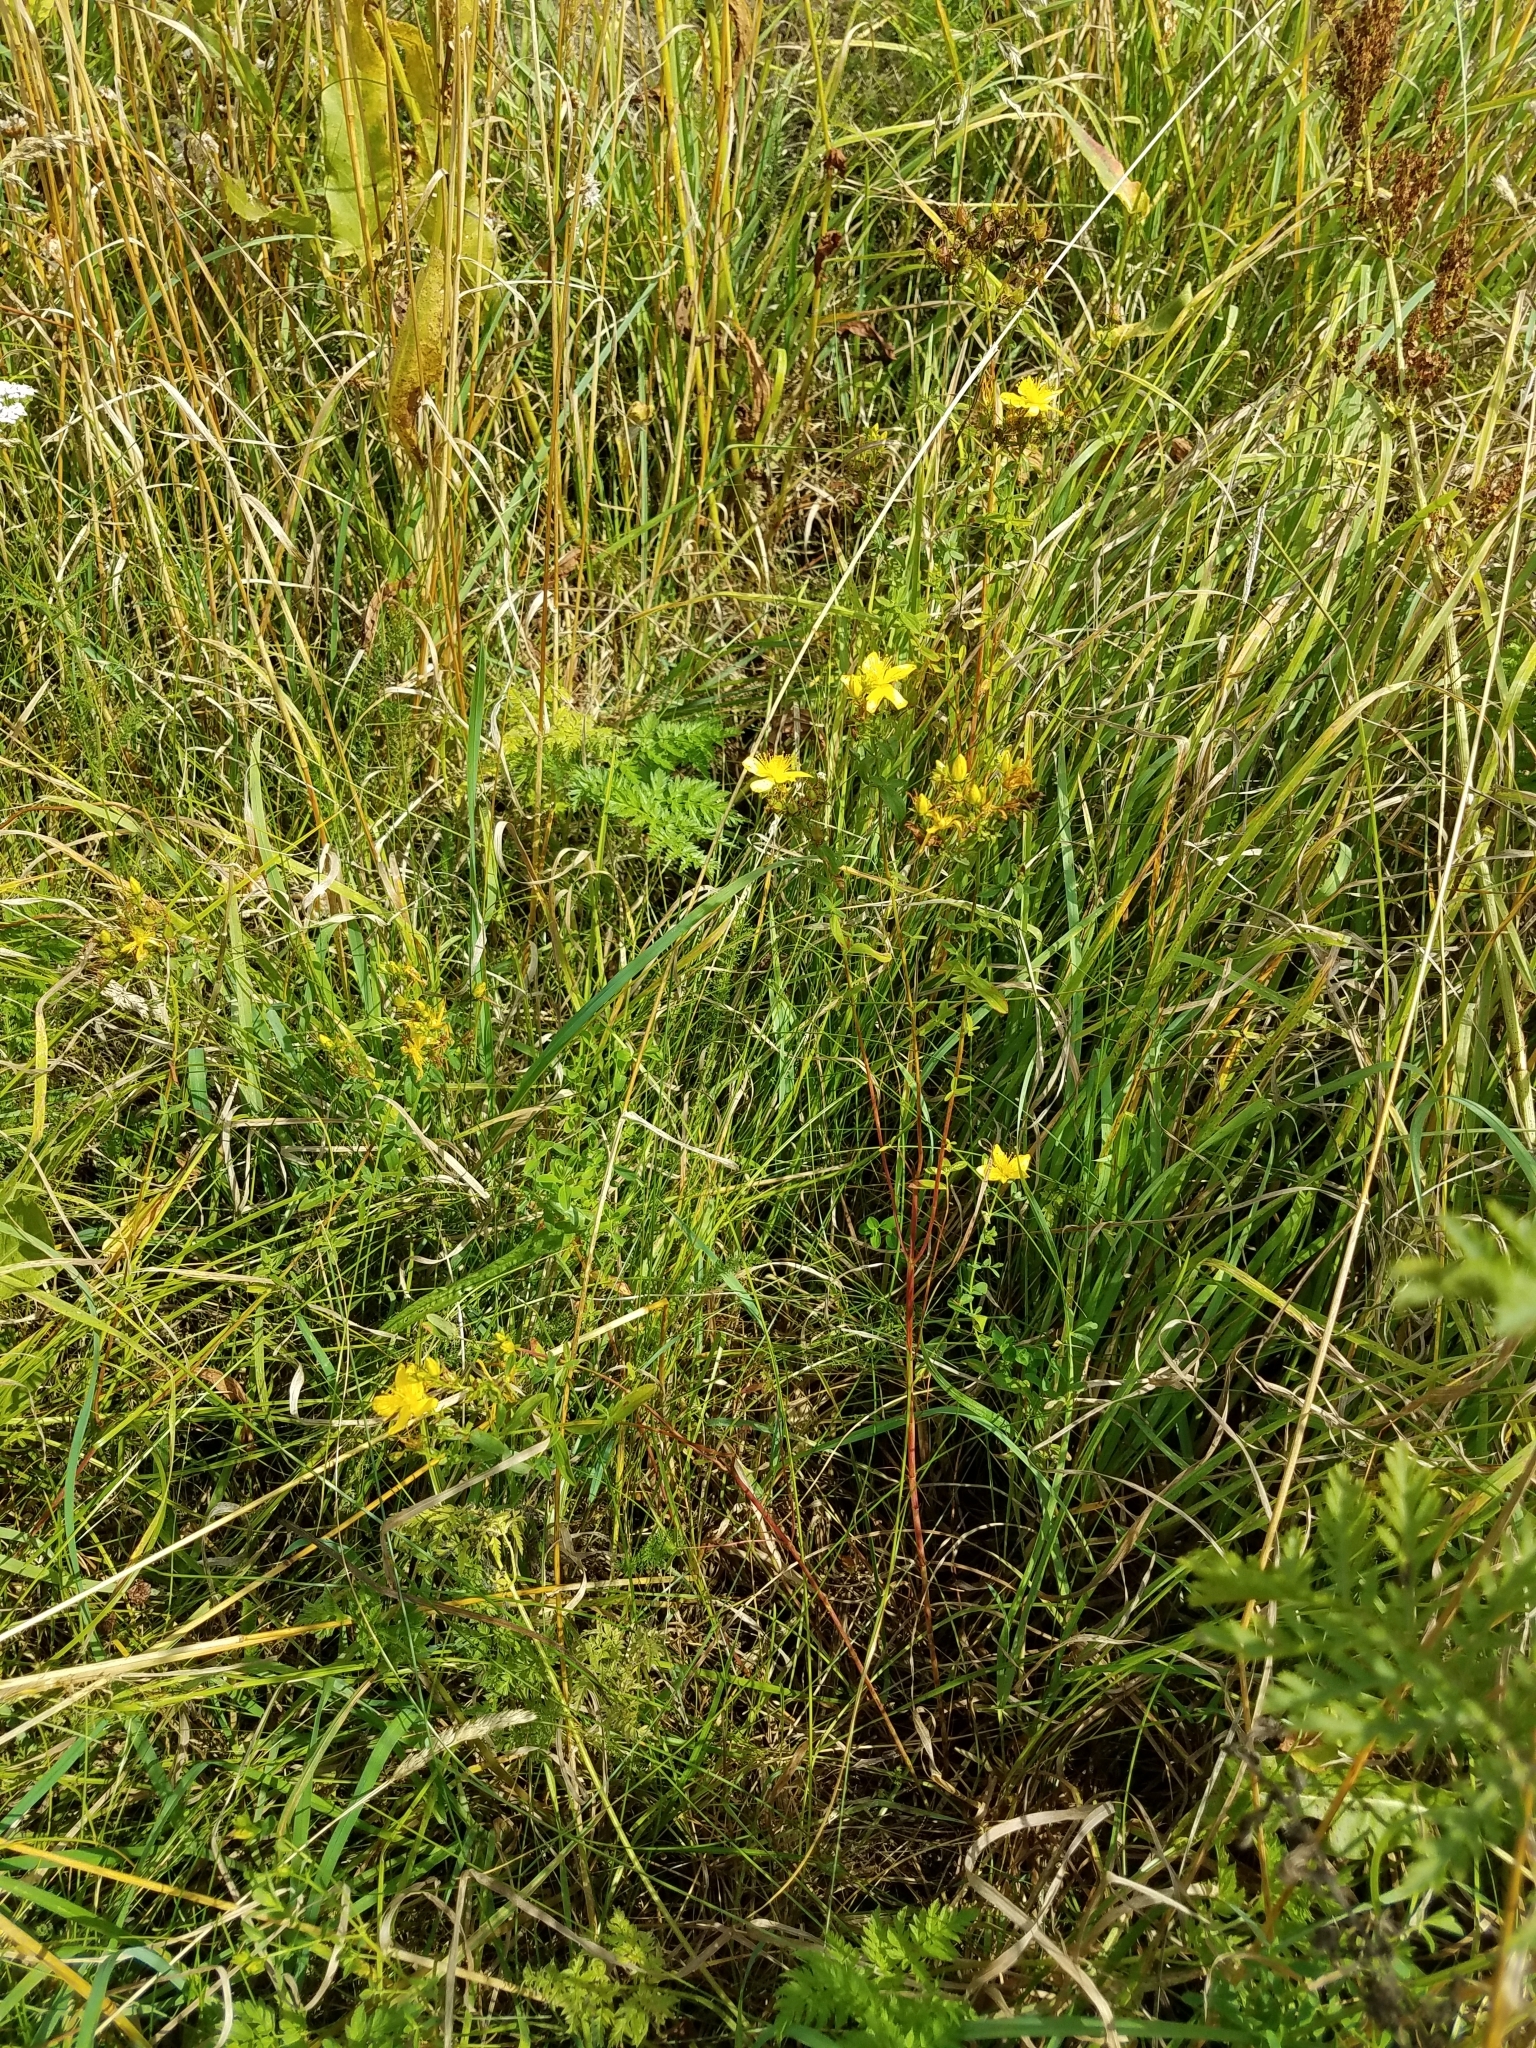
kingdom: Plantae
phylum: Tracheophyta
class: Magnoliopsida
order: Malpighiales
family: Hypericaceae
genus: Hypericum
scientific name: Hypericum perforatum
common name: Common st. johnswort
